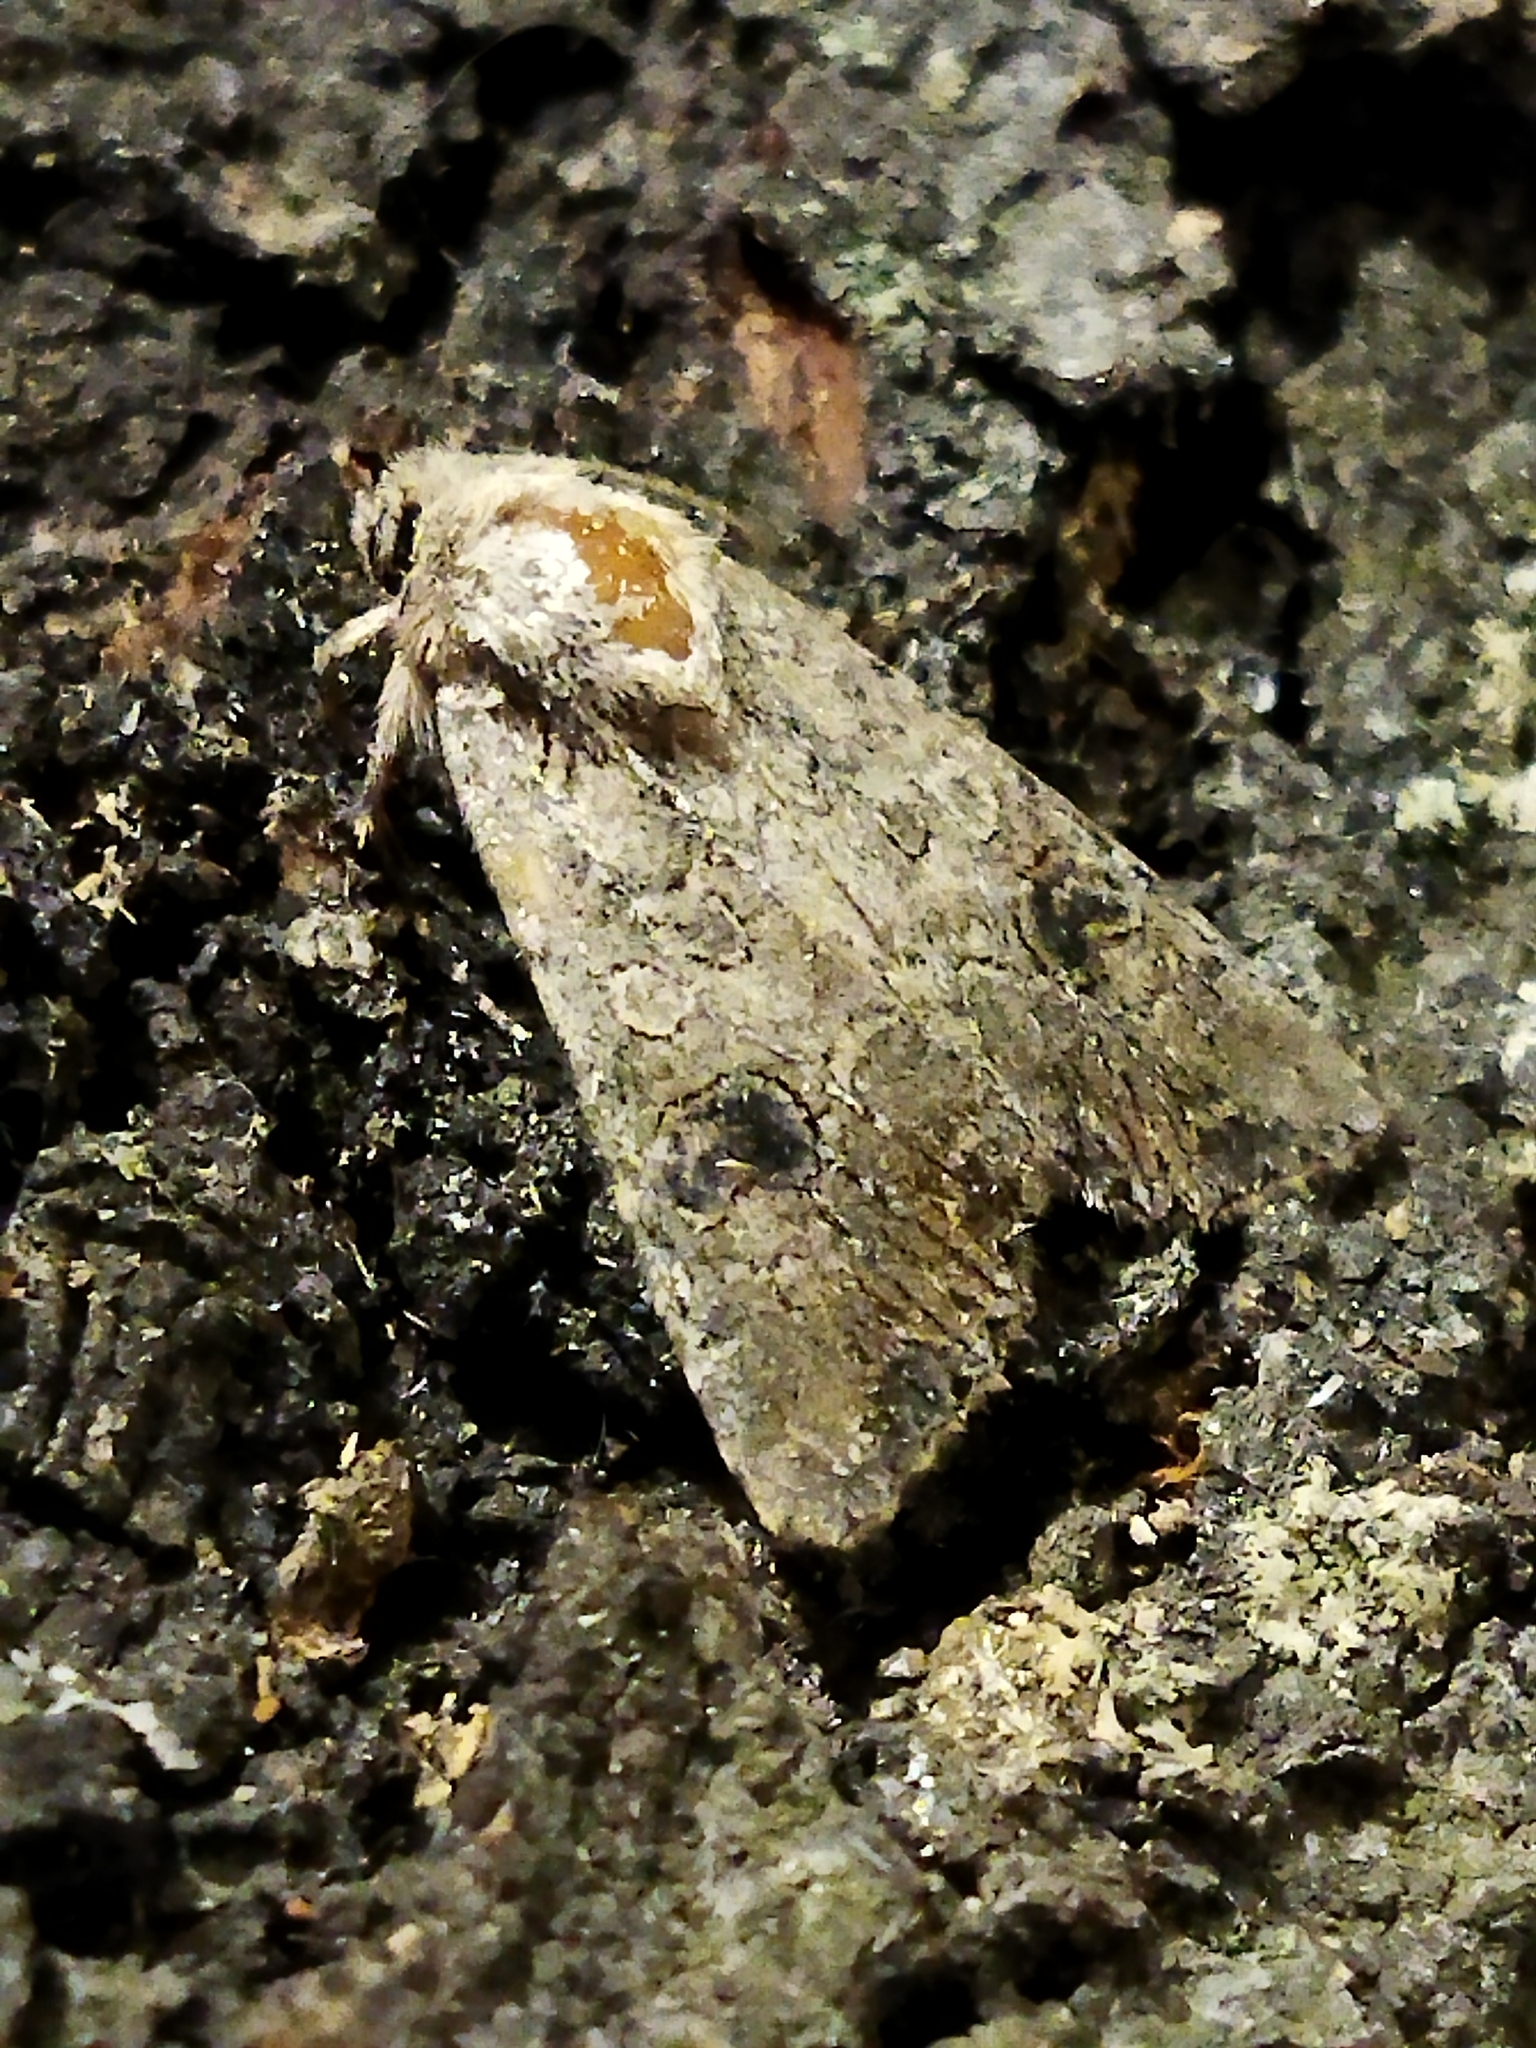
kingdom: Animalia
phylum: Arthropoda
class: Insecta
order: Lepidoptera
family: Noctuidae
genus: Anarta
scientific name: Anarta trifolii
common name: Clover cutworm moth
